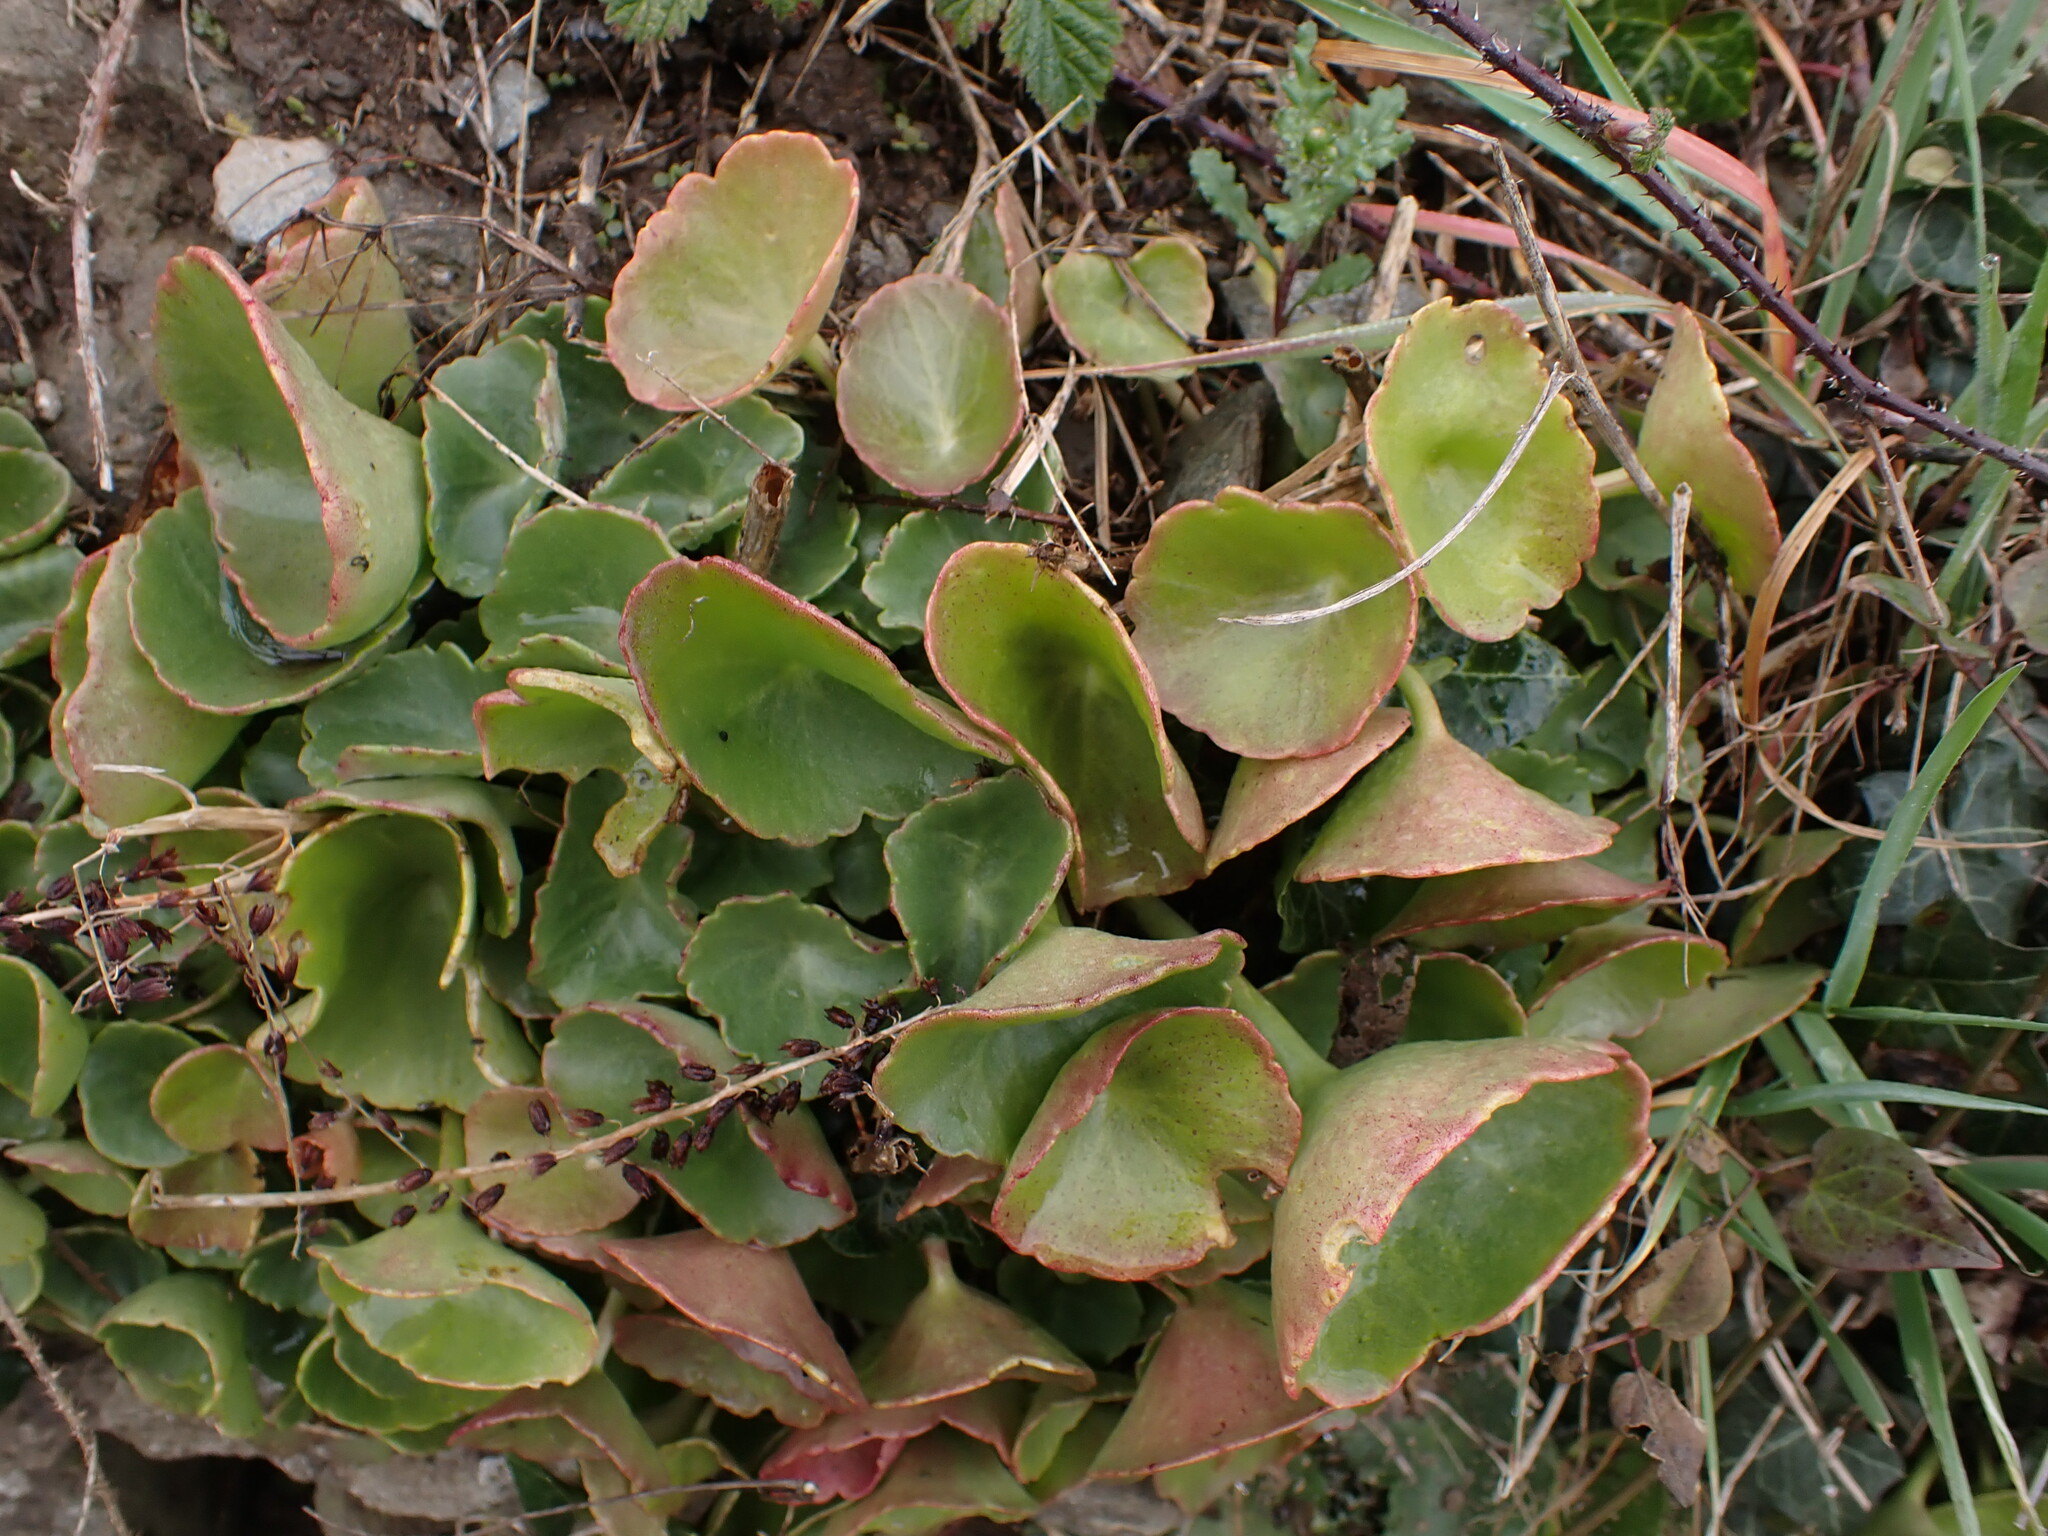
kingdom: Plantae
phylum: Tracheophyta
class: Magnoliopsida
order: Saxifragales
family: Crassulaceae
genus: Umbilicus
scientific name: Umbilicus rupestris
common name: Navelwort
